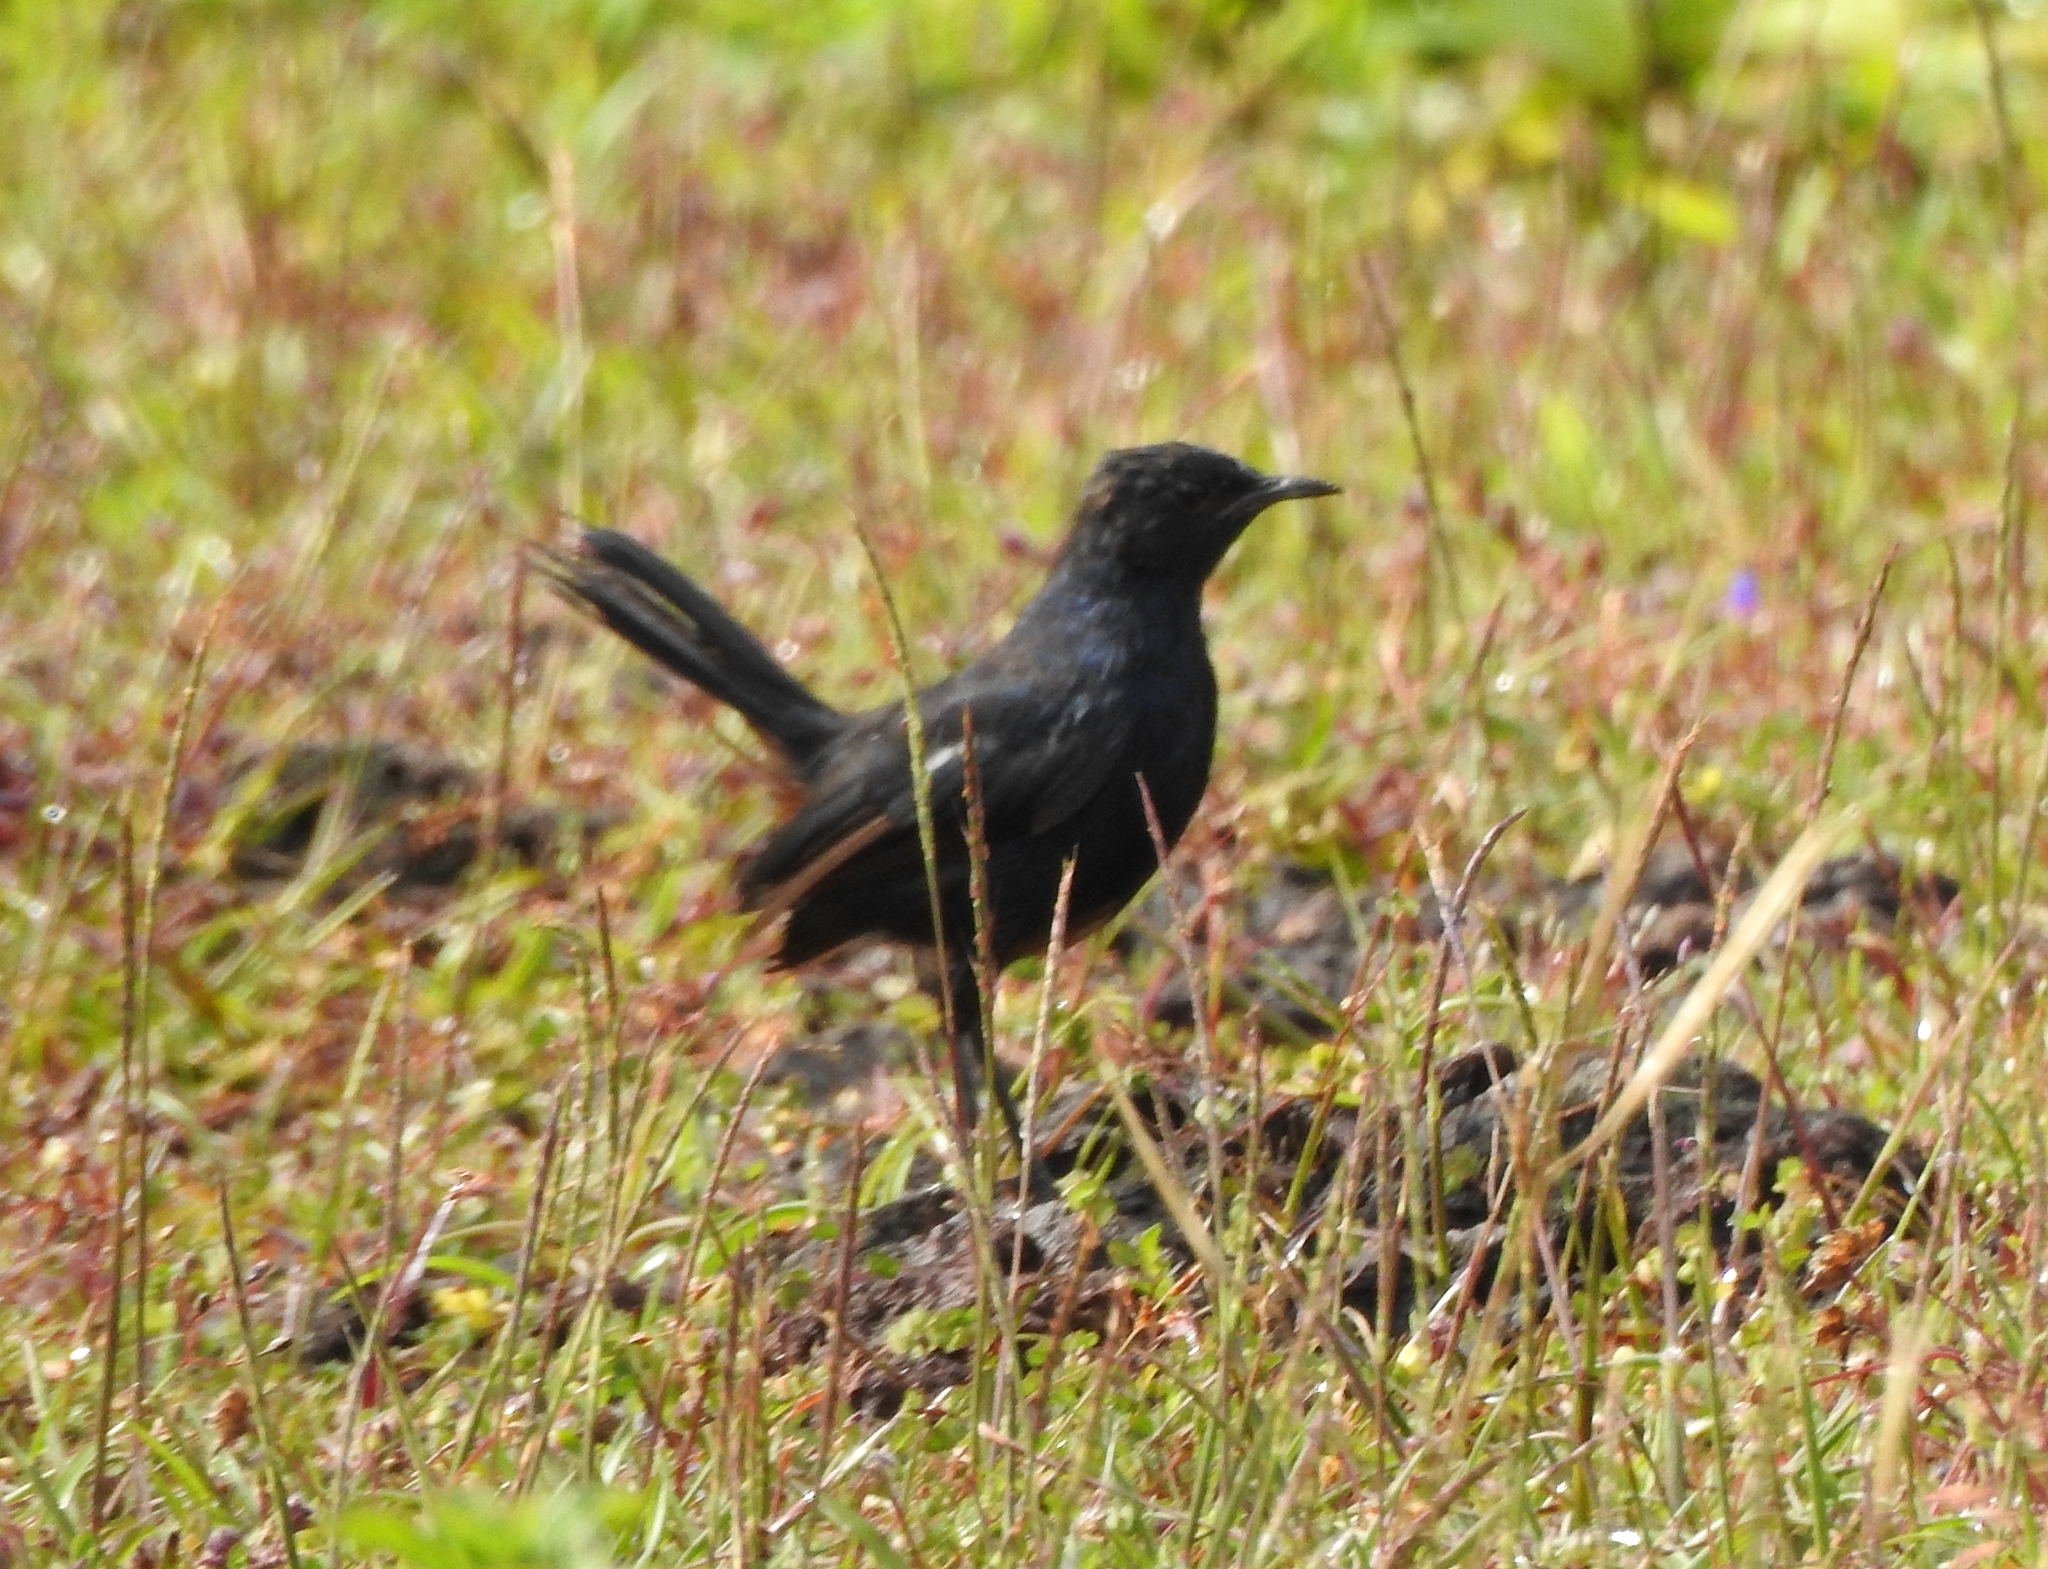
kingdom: Animalia
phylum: Chordata
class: Aves
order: Passeriformes
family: Muscicapidae
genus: Saxicoloides
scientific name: Saxicoloides fulicatus
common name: Indian robin
